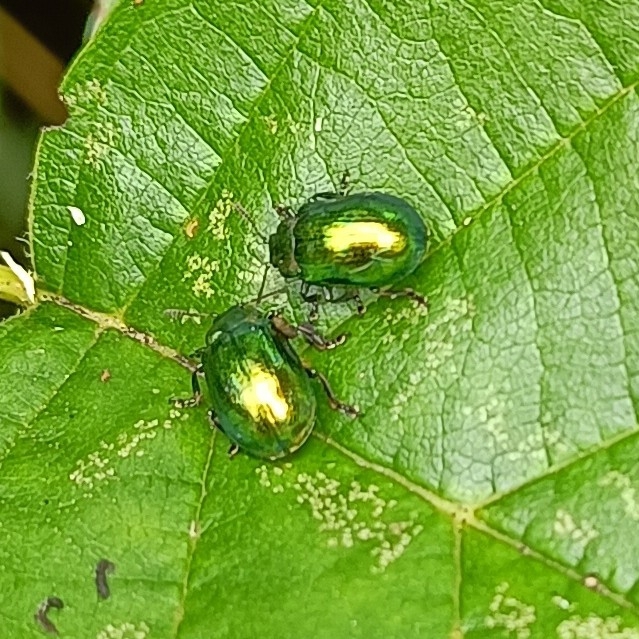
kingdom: Animalia
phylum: Arthropoda
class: Insecta
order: Coleoptera
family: Chrysomelidae
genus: Plagiosterna
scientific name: Plagiosterna aenea
